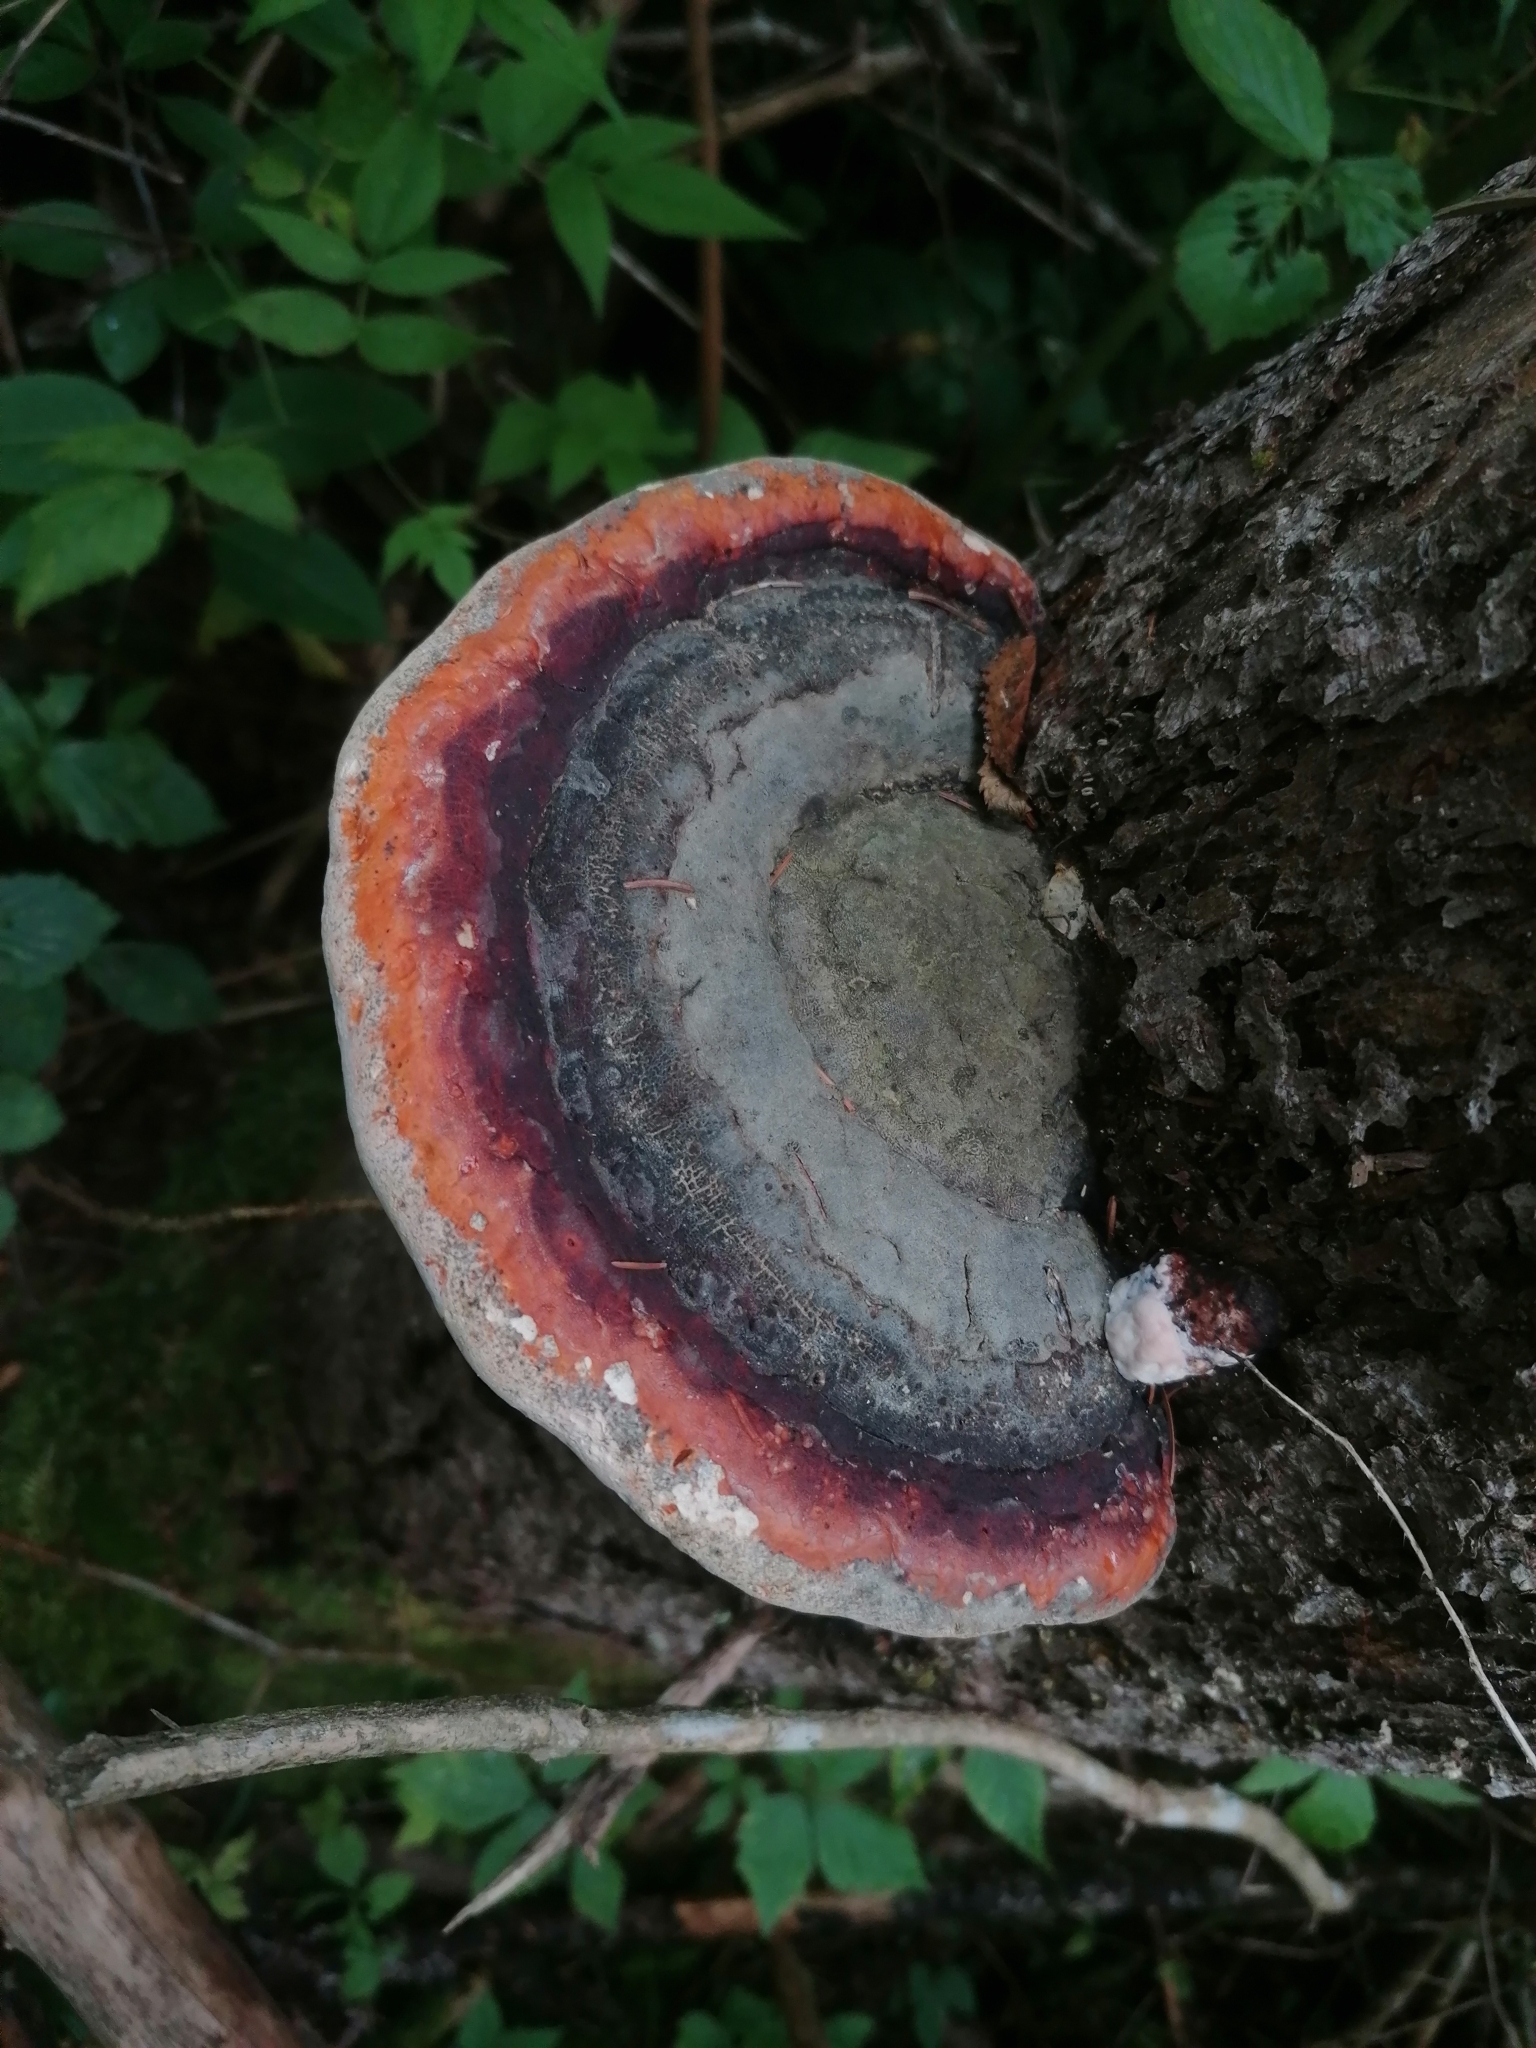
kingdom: Fungi
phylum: Basidiomycota
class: Agaricomycetes
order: Polyporales
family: Fomitopsidaceae
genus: Fomitopsis
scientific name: Fomitopsis mounceae
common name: Northern red belt
